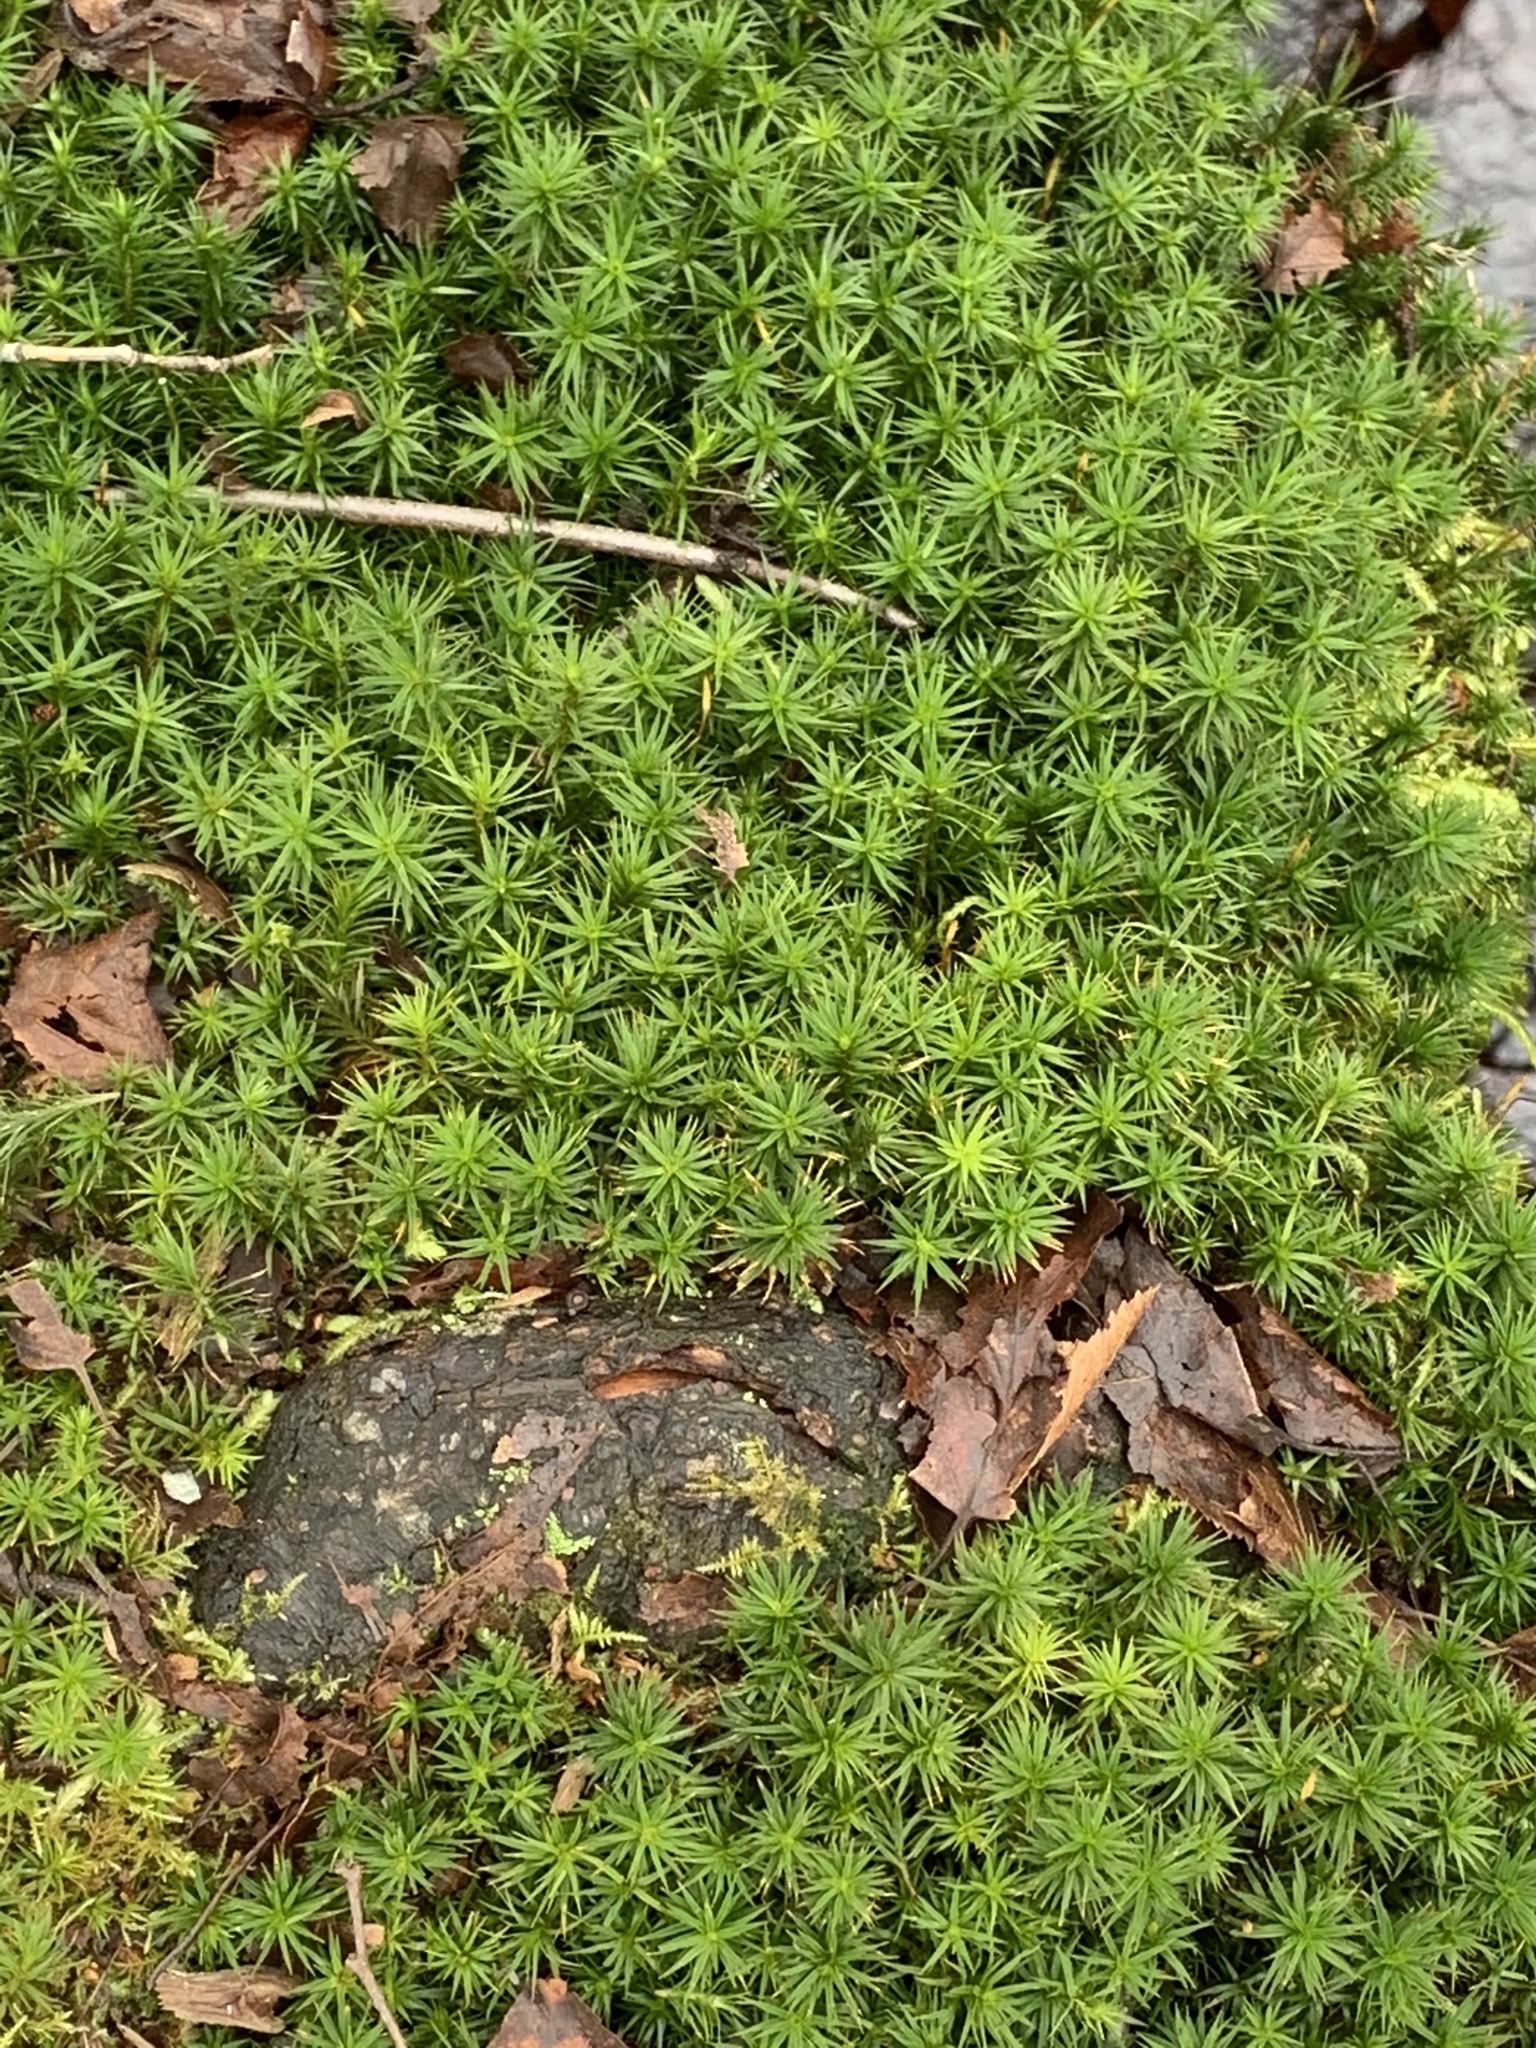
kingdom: Plantae
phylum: Bryophyta
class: Polytrichopsida
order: Polytrichales
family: Polytrichaceae
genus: Polytrichum
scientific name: Polytrichum juniperinum
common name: Juniper haircap moss
